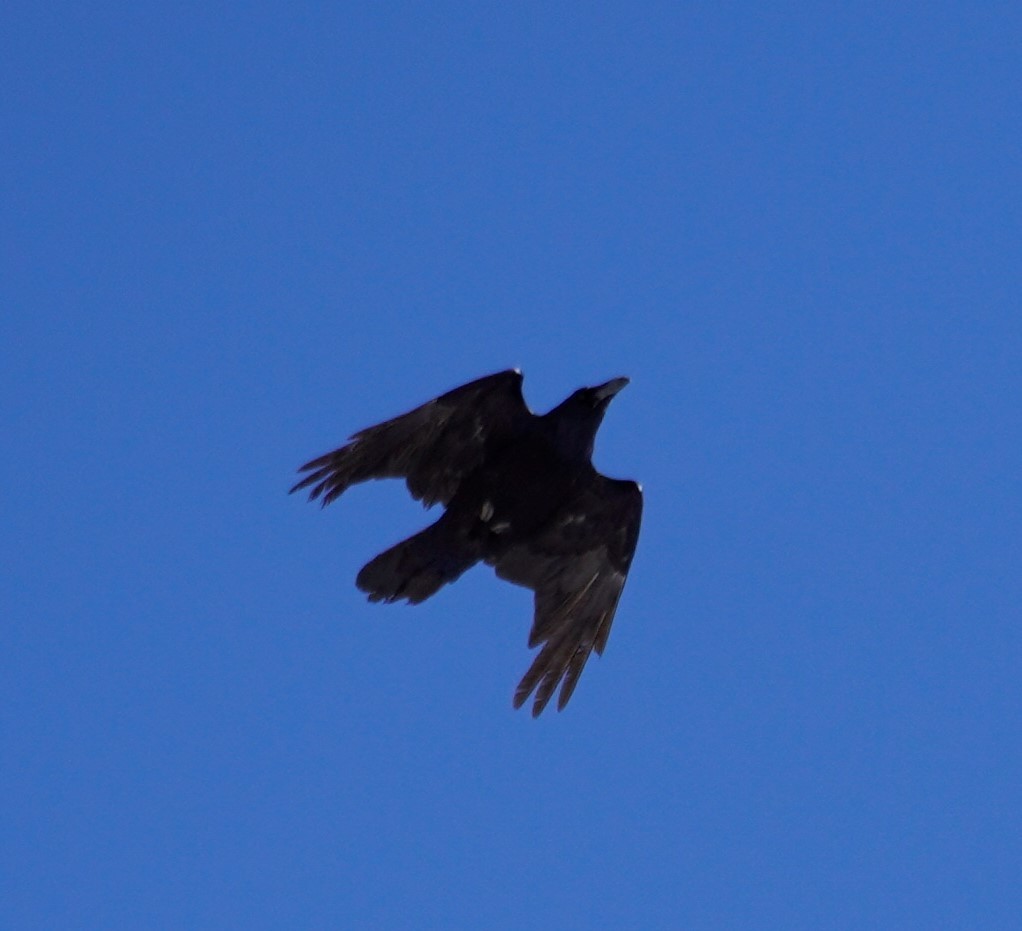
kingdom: Animalia
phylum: Chordata
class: Aves
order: Passeriformes
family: Corvidae
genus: Corvus
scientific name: Corvus corax
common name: Common raven
